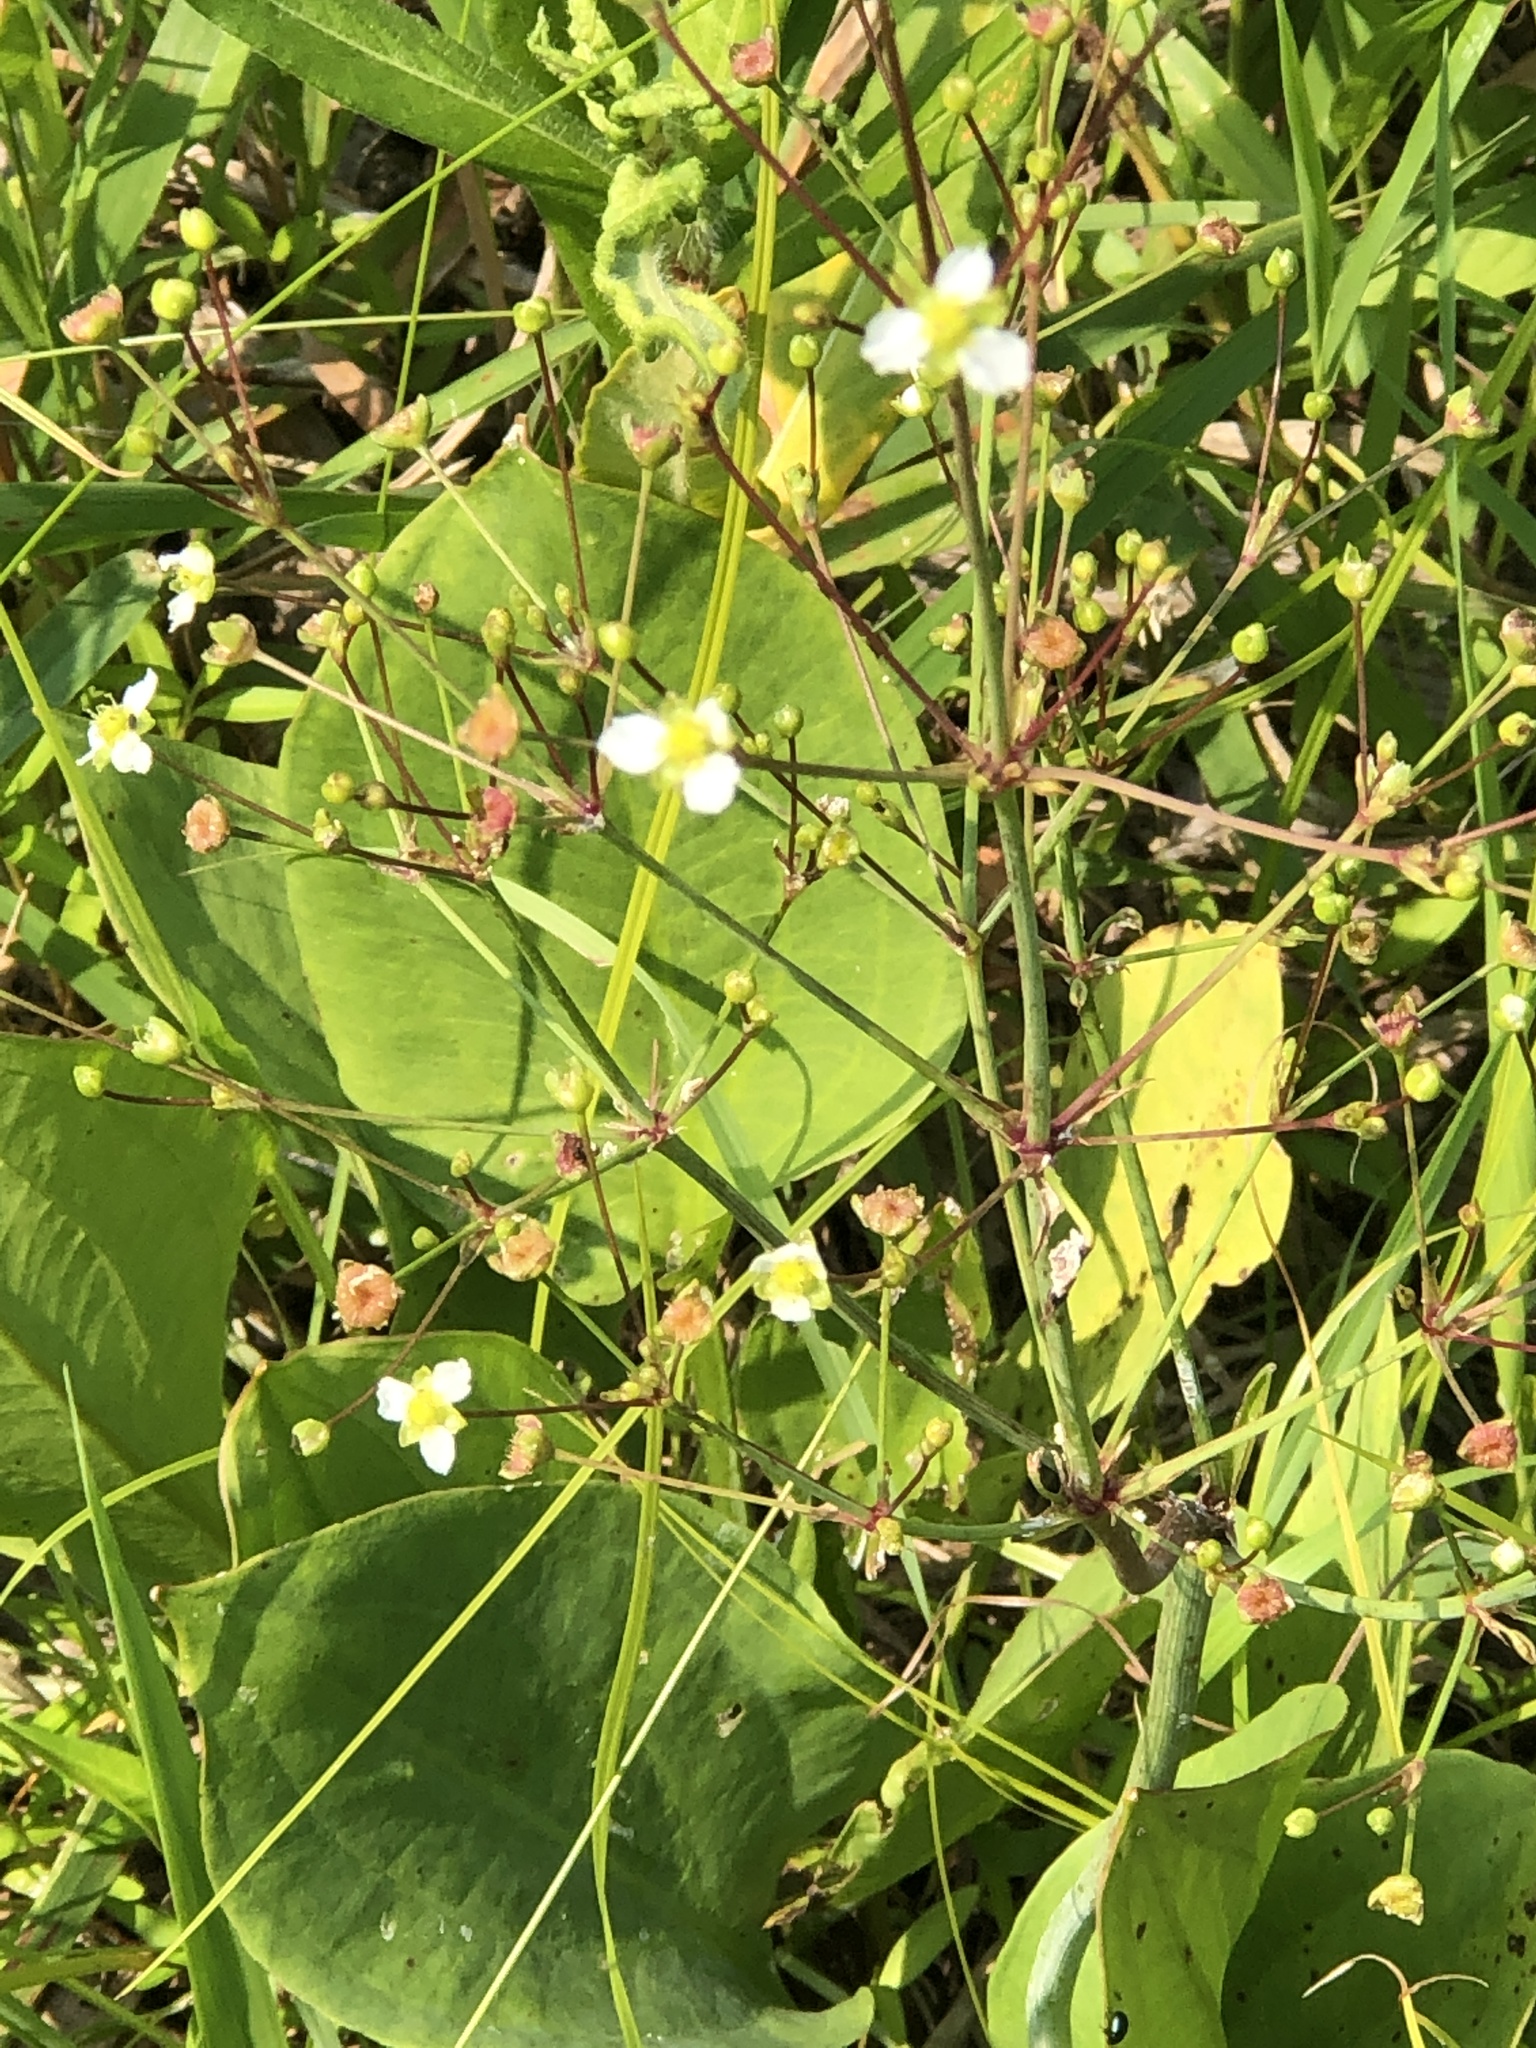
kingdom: Plantae
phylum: Tracheophyta
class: Liliopsida
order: Alismatales
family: Alismataceae
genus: Alisma
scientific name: Alisma triviale
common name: Northern water-plantain
